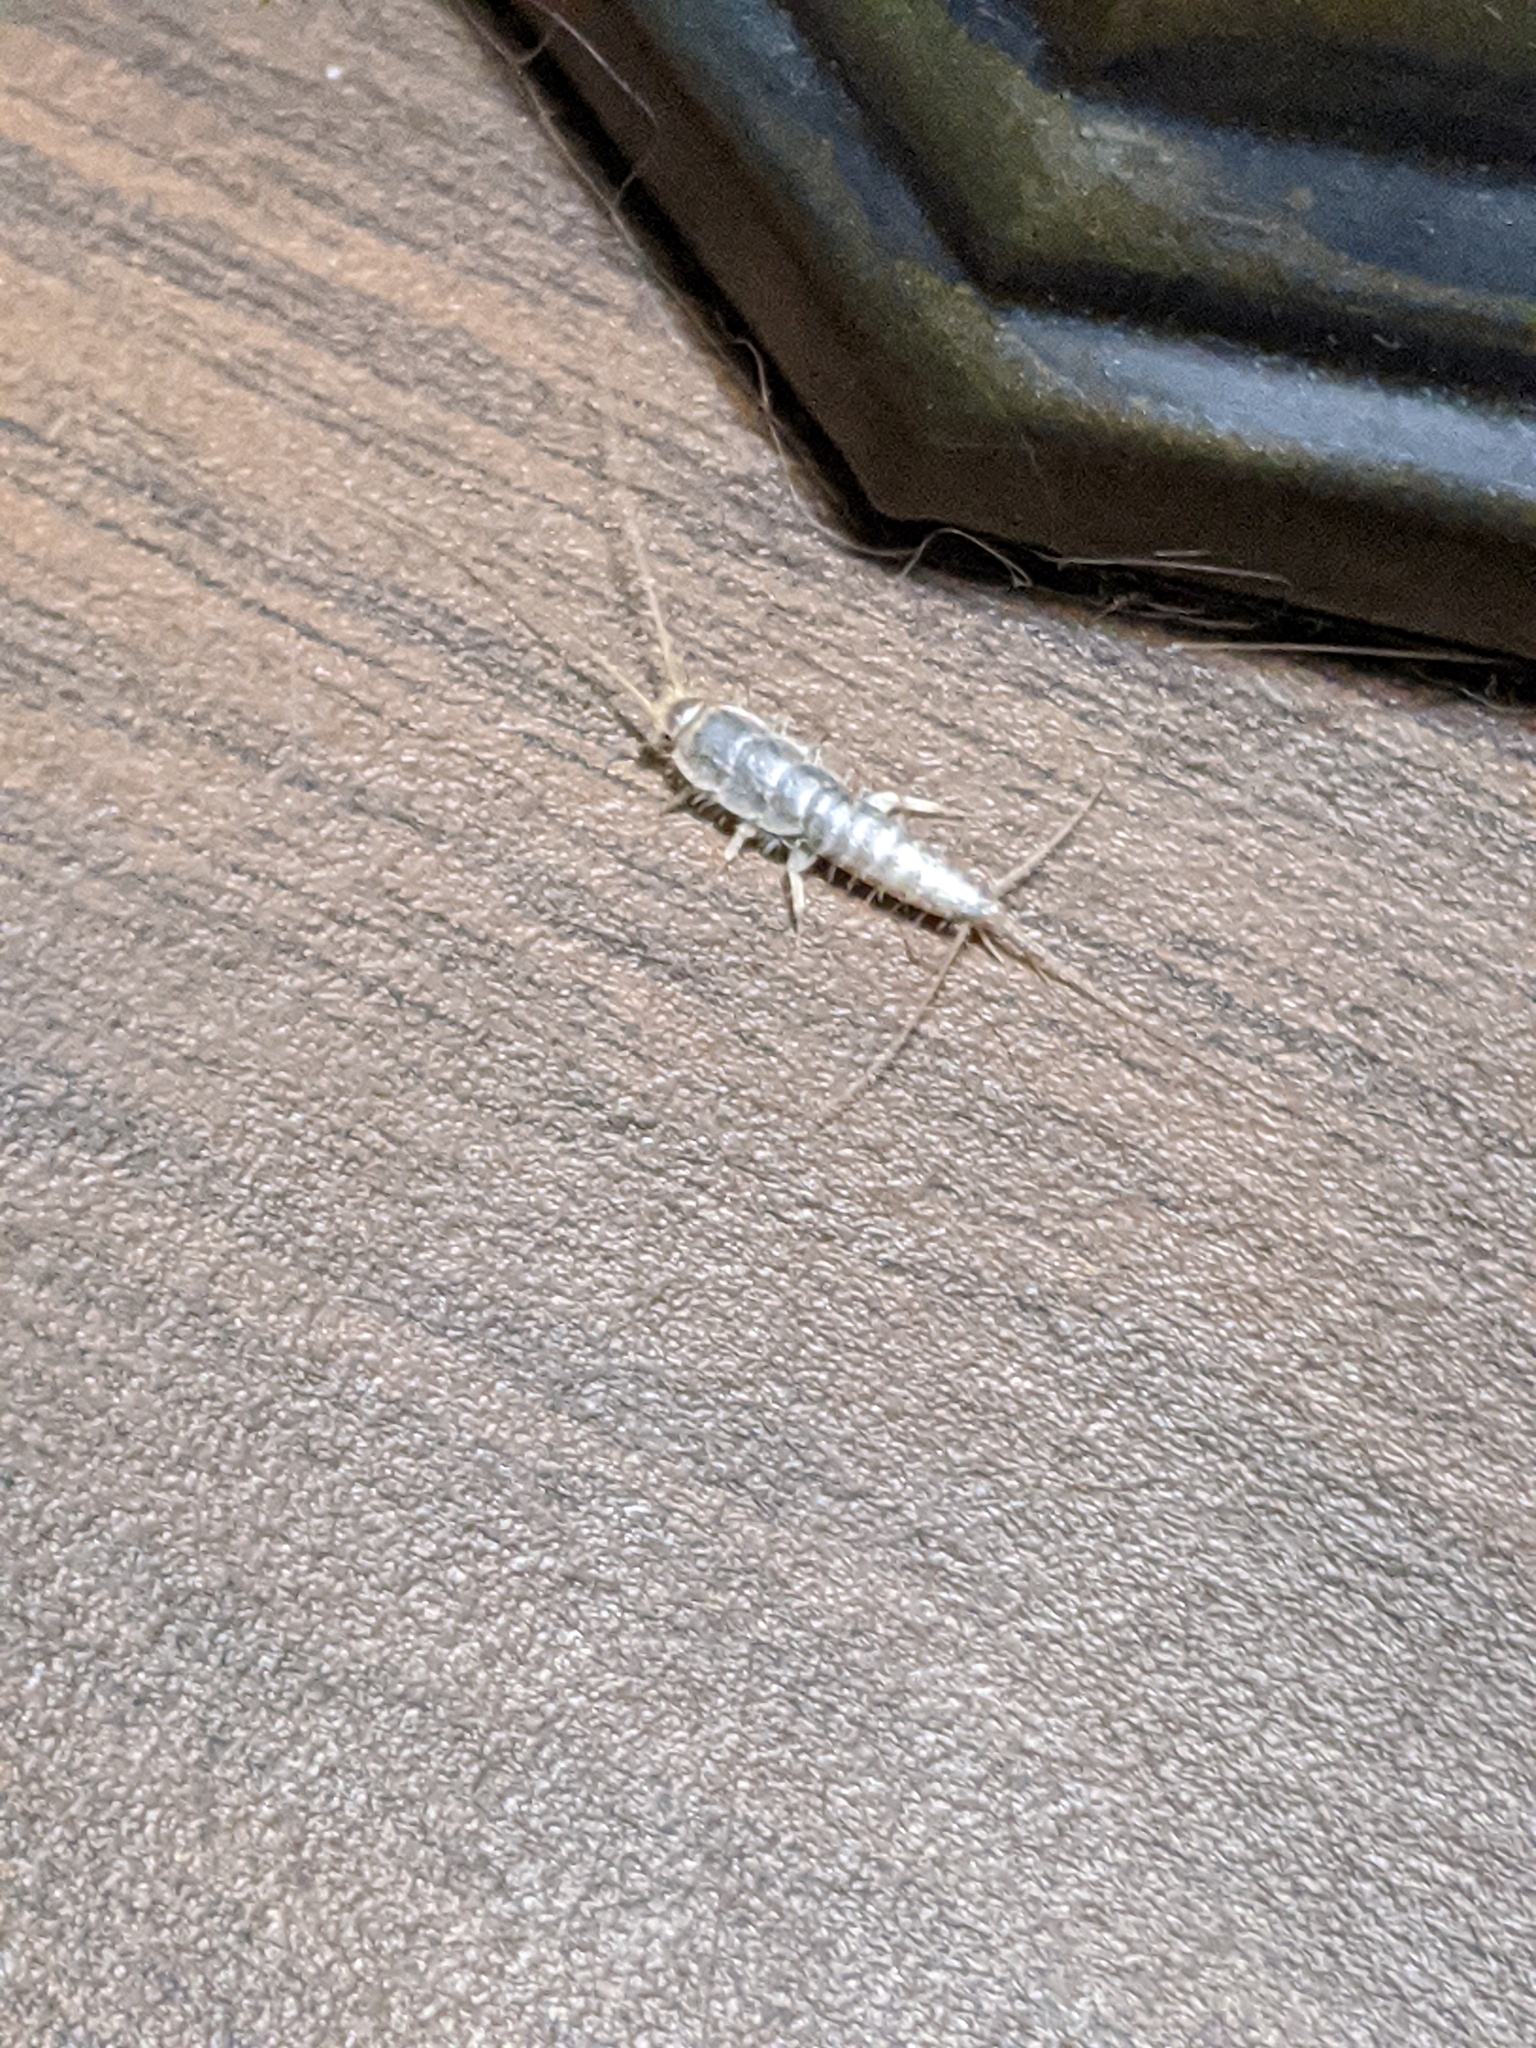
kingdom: Animalia
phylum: Arthropoda
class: Insecta
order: Zygentoma
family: Lepismatidae
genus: Ctenolepisma
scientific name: Ctenolepisma longicaudatum
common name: Silverfish
